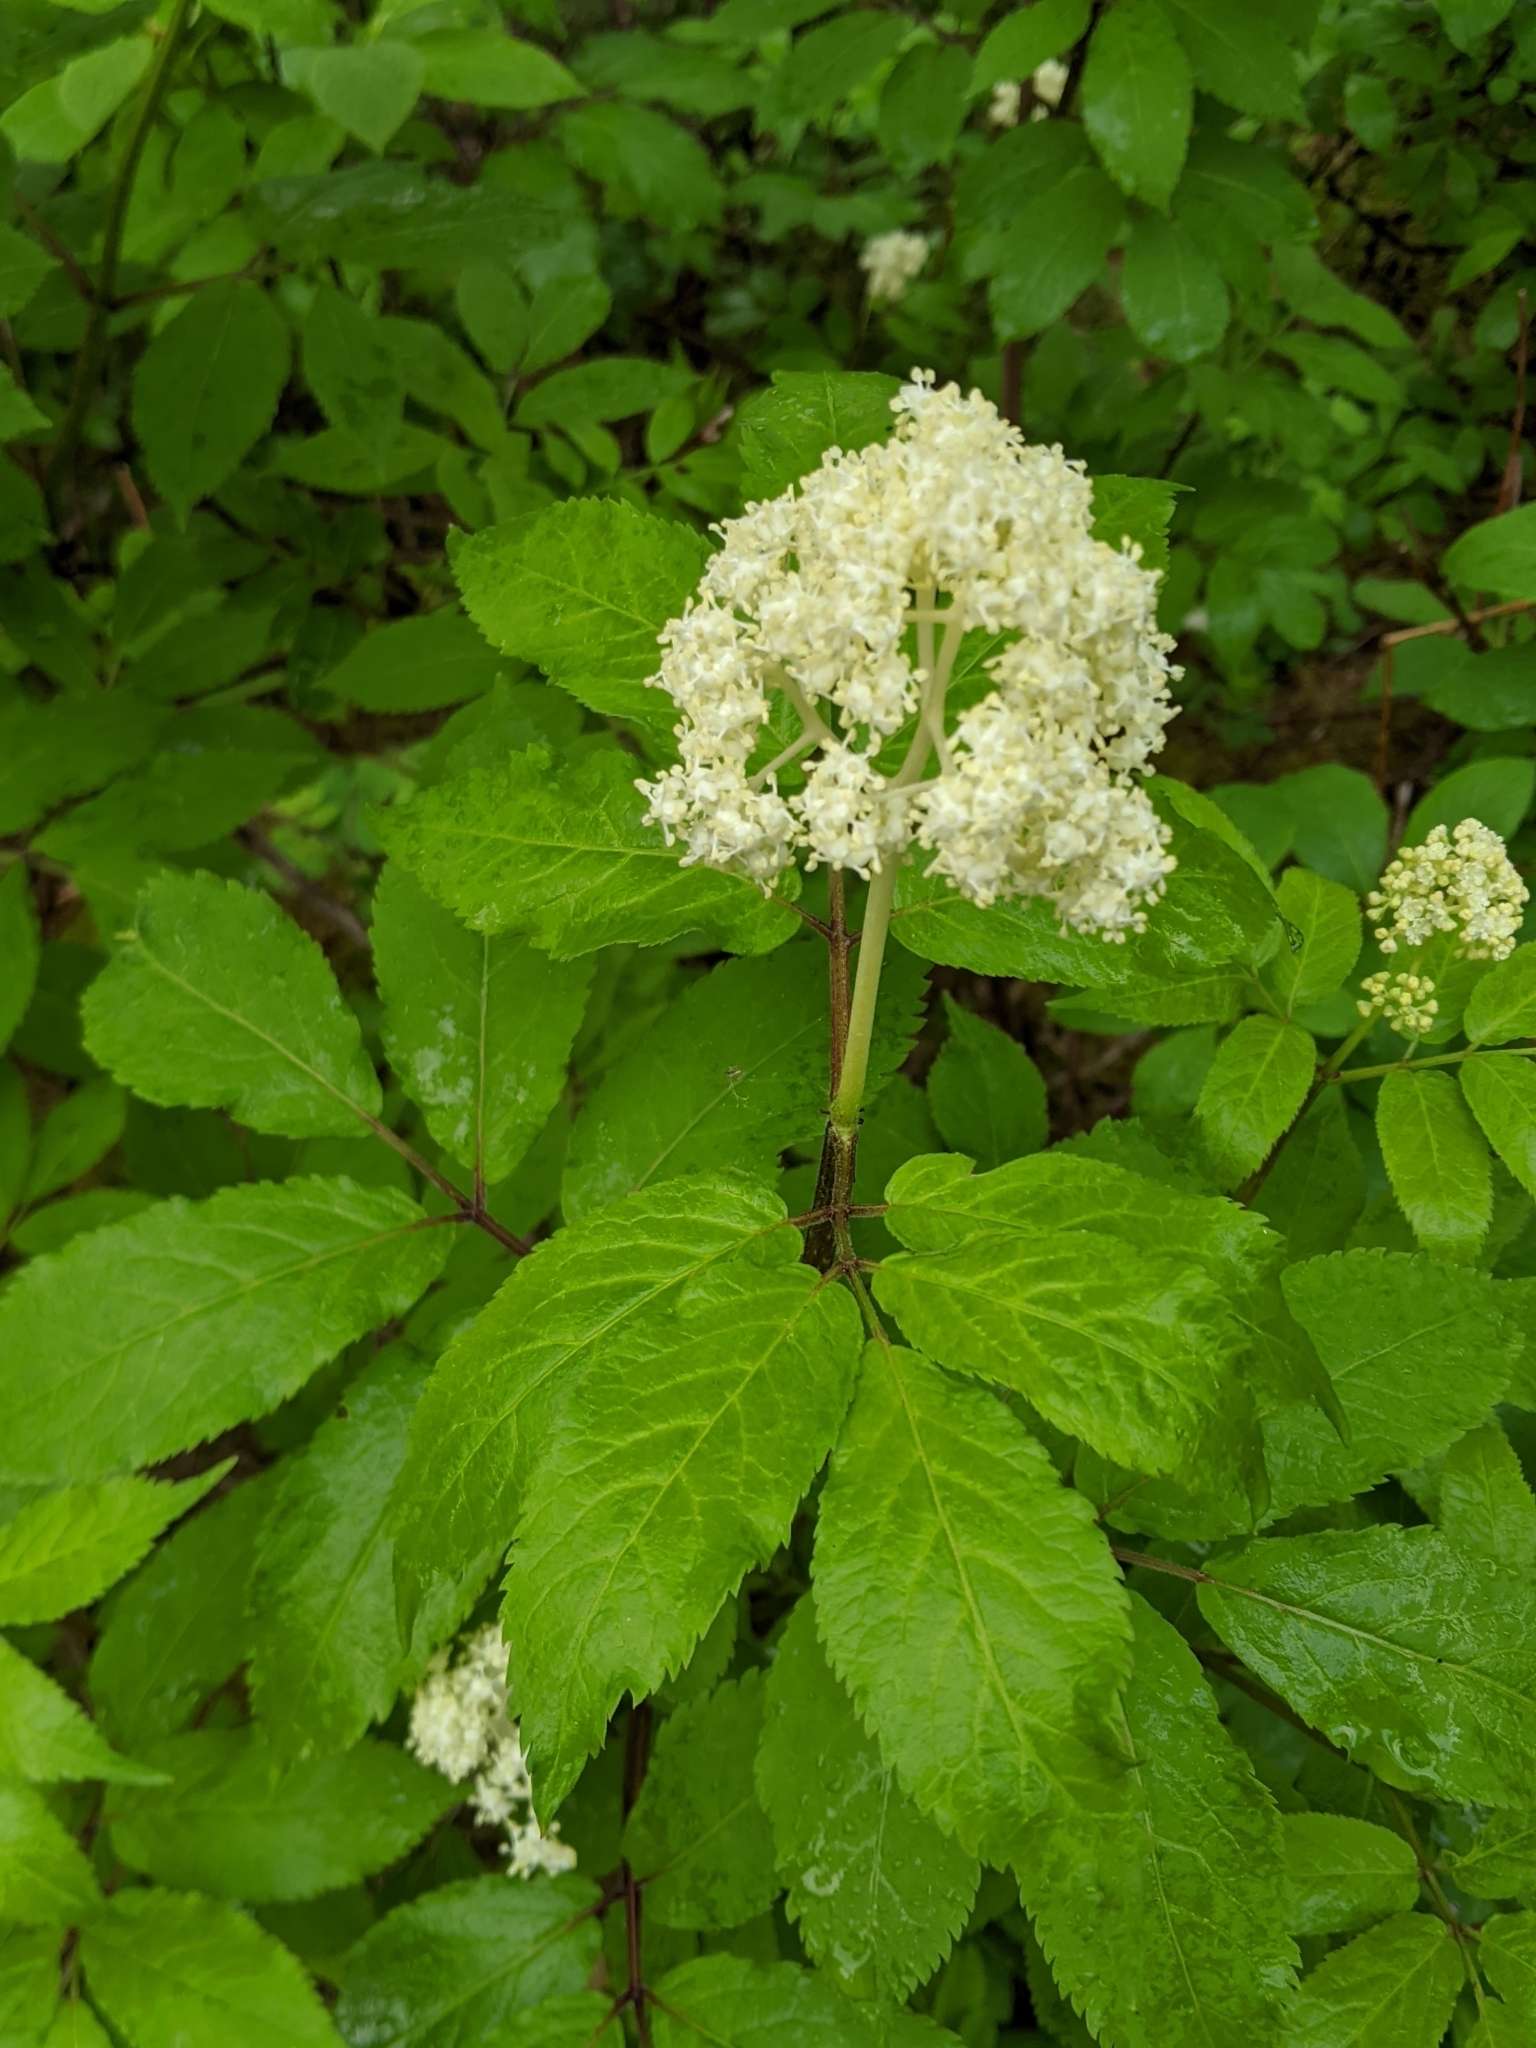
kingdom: Plantae
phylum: Tracheophyta
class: Magnoliopsida
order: Dipsacales
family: Viburnaceae
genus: Sambucus
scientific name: Sambucus racemosa
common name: Red-berried elder
